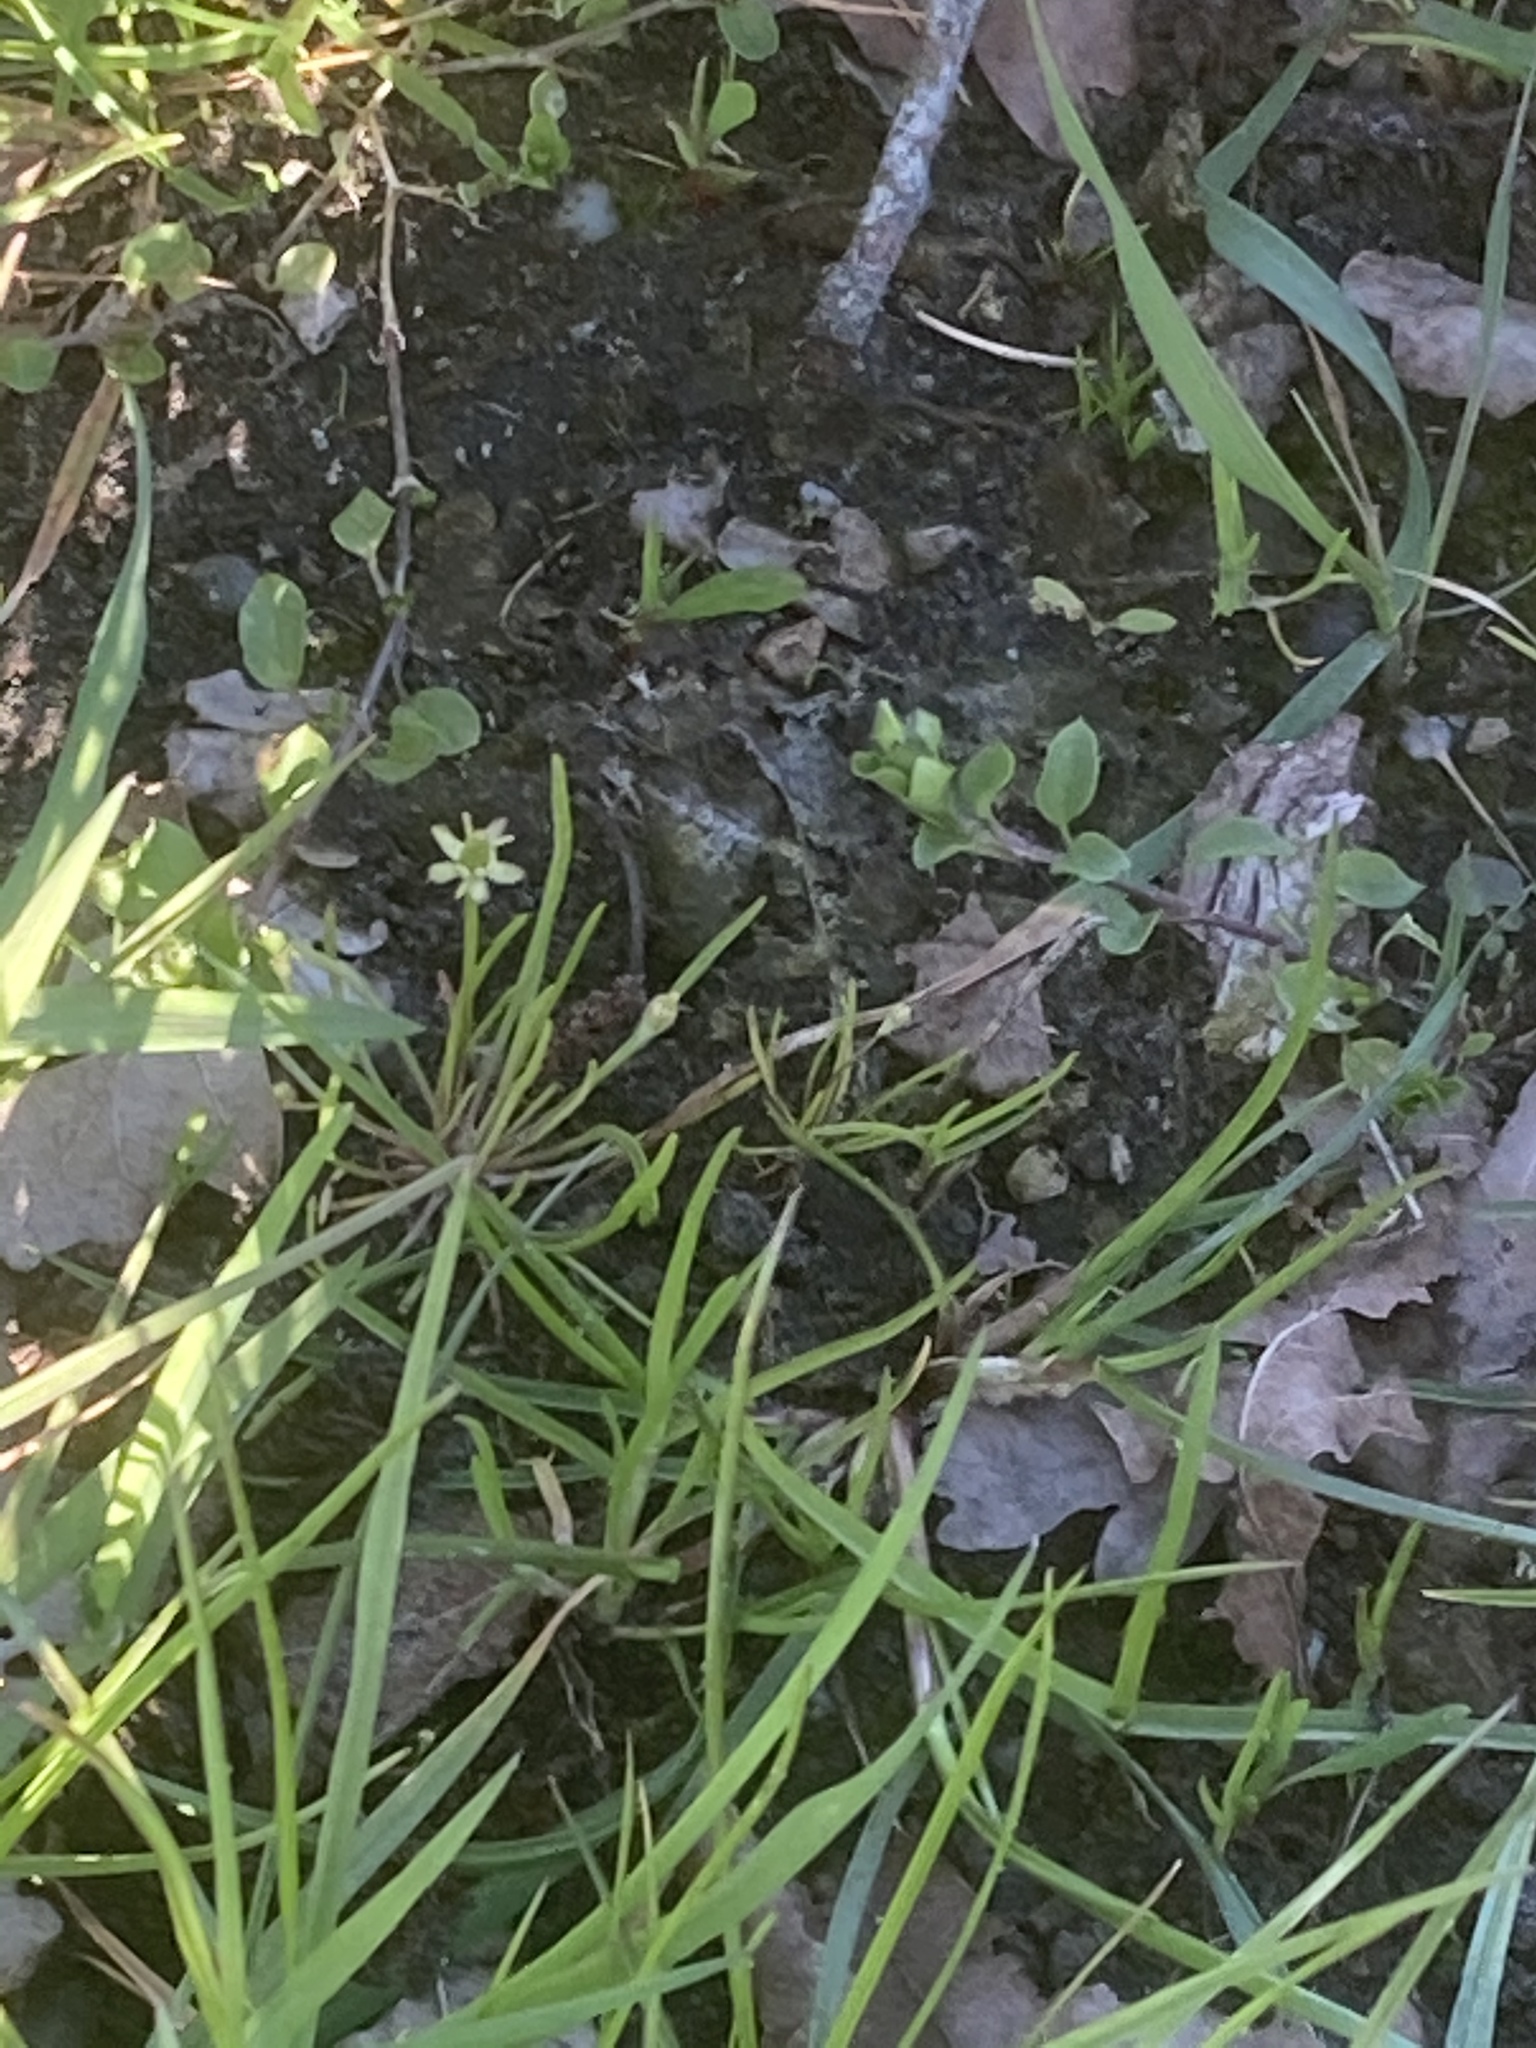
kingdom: Plantae
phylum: Tracheophyta
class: Magnoliopsida
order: Ranunculales
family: Ranunculaceae
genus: Myosurus
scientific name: Myosurus minimus
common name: Mousetail
